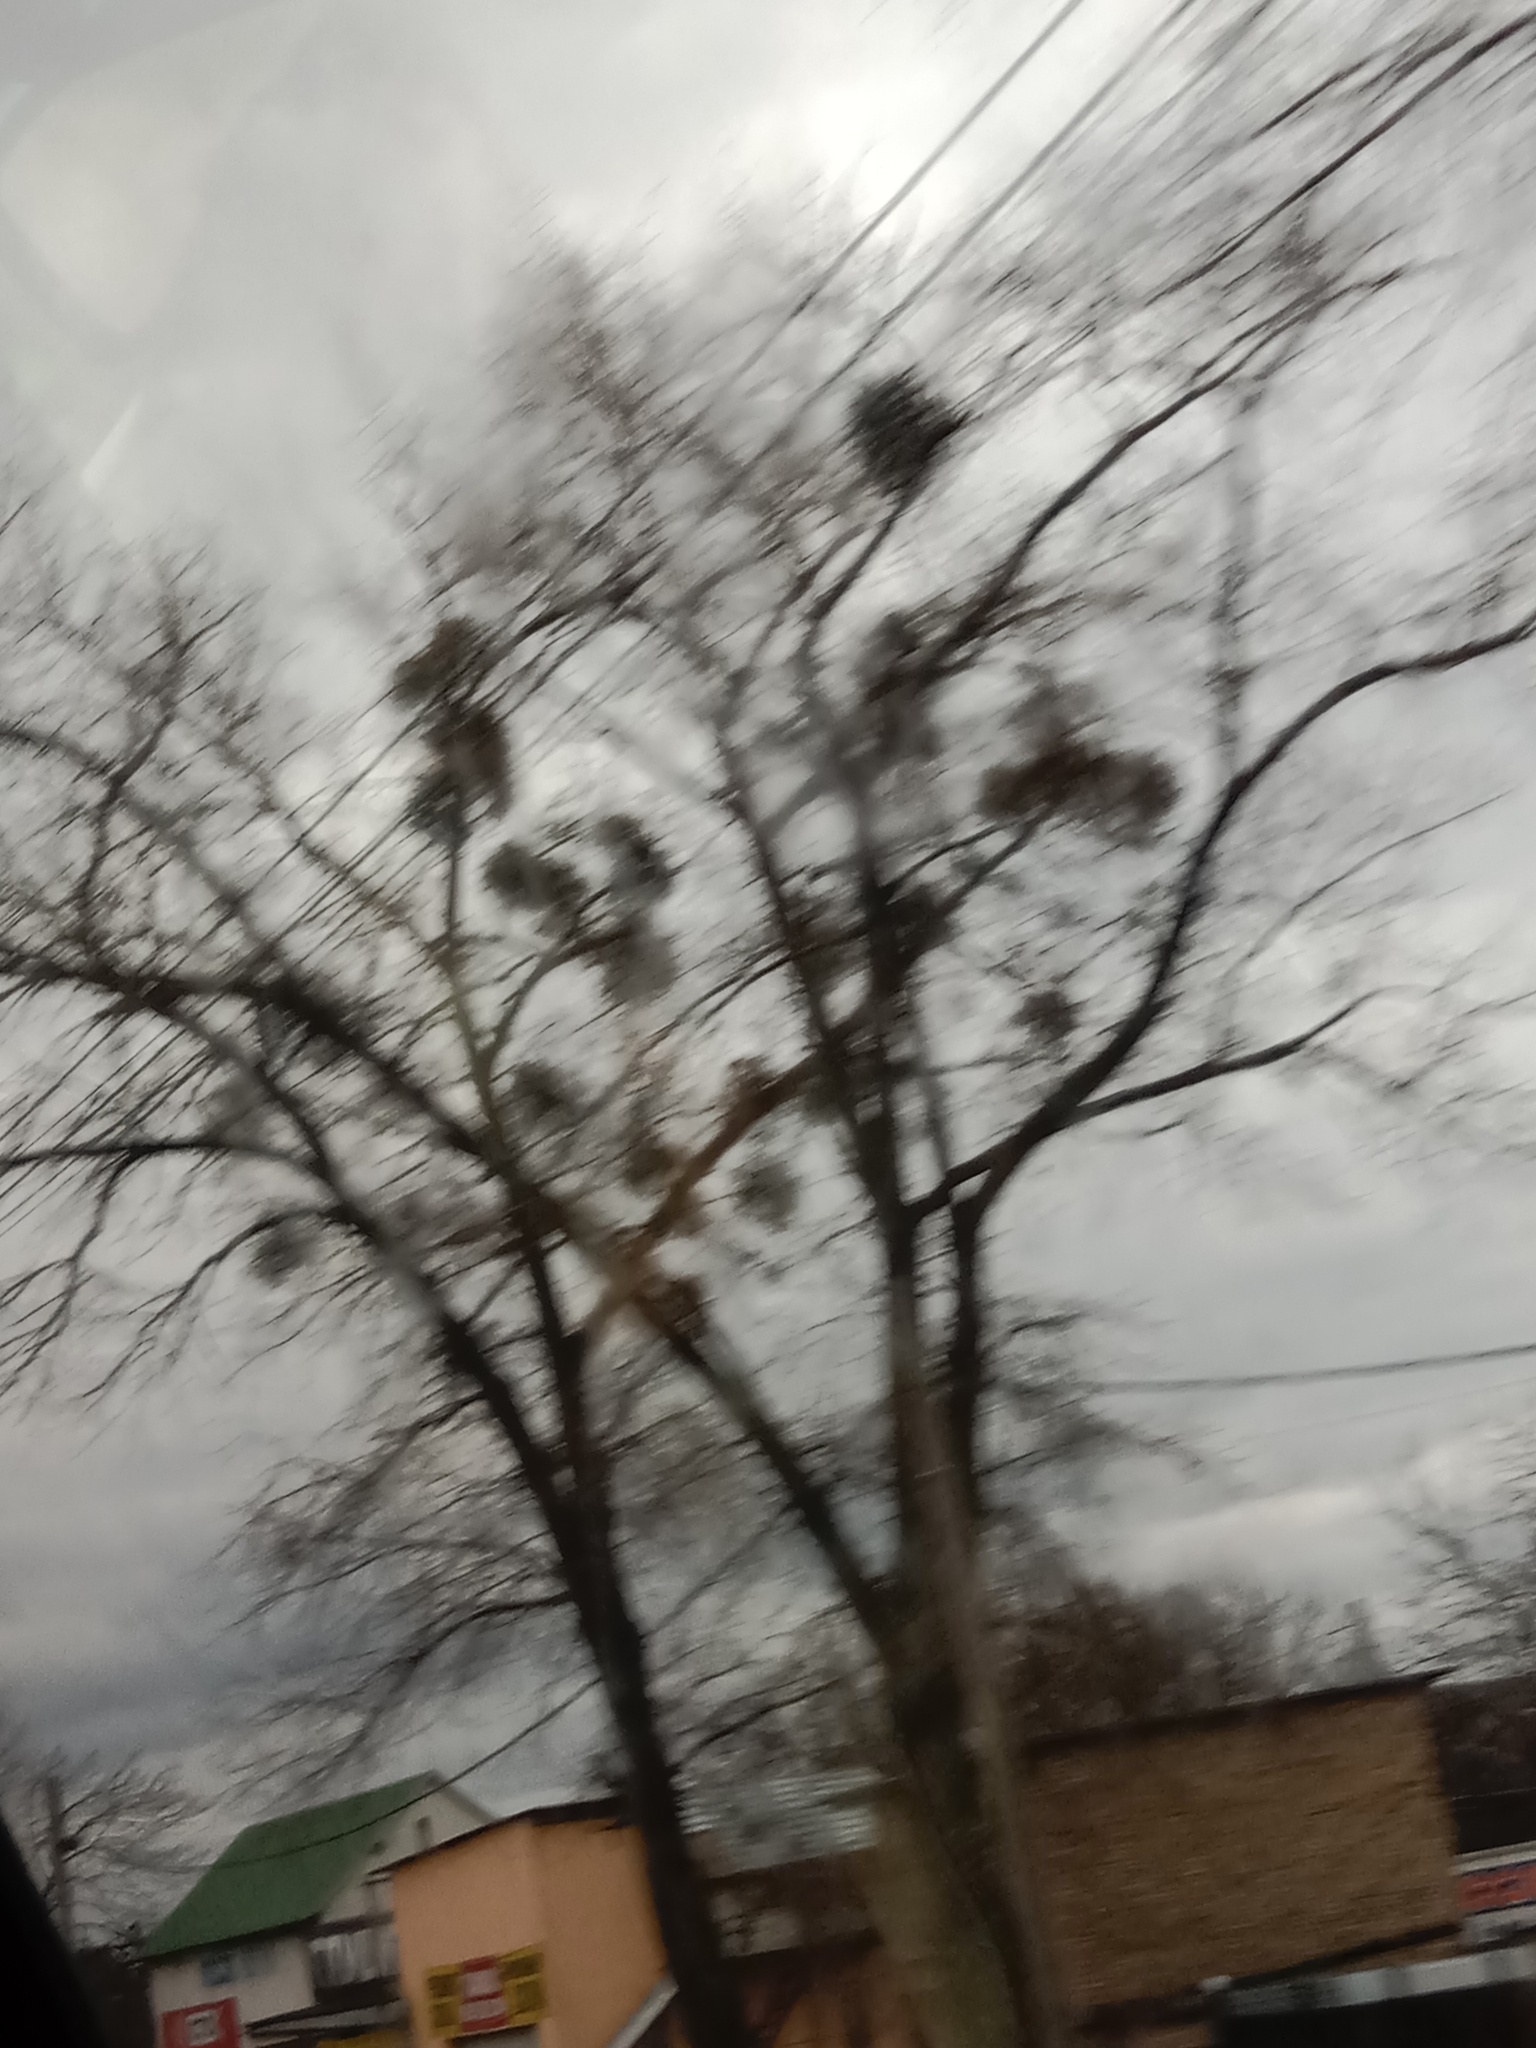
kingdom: Plantae
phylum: Tracheophyta
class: Magnoliopsida
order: Santalales
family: Viscaceae
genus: Viscum
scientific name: Viscum album
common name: Mistletoe
